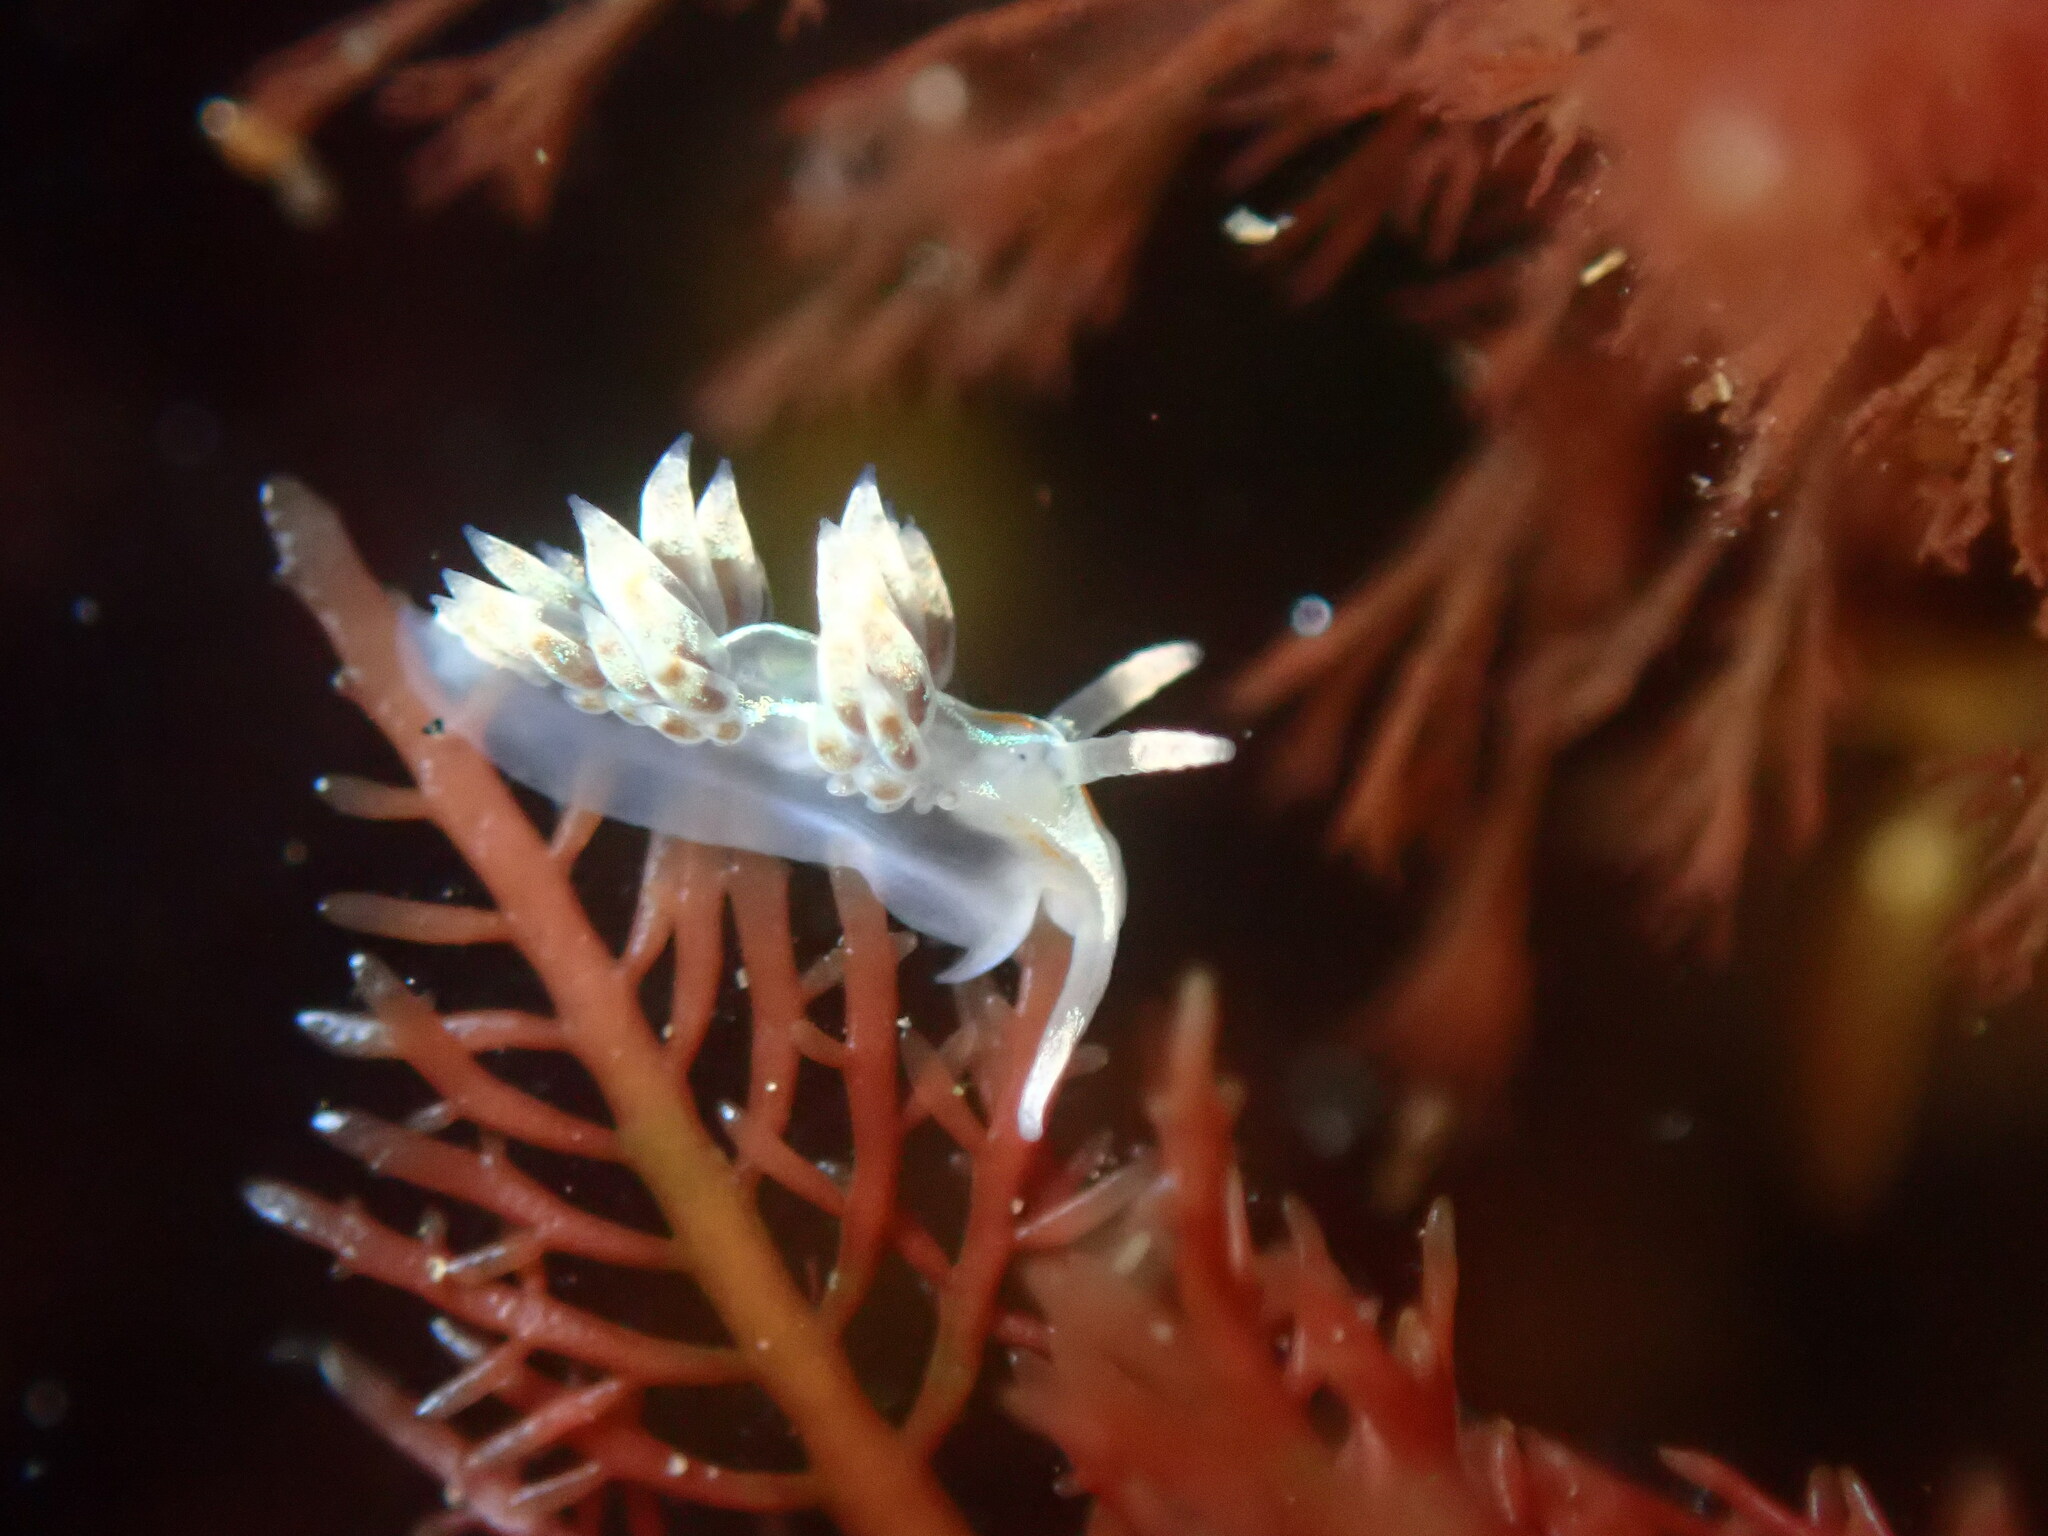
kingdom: Animalia
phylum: Mollusca
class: Gastropoda
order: Nudibranchia
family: Myrrhinidae
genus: Hermissenda
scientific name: Hermissenda opalescens
